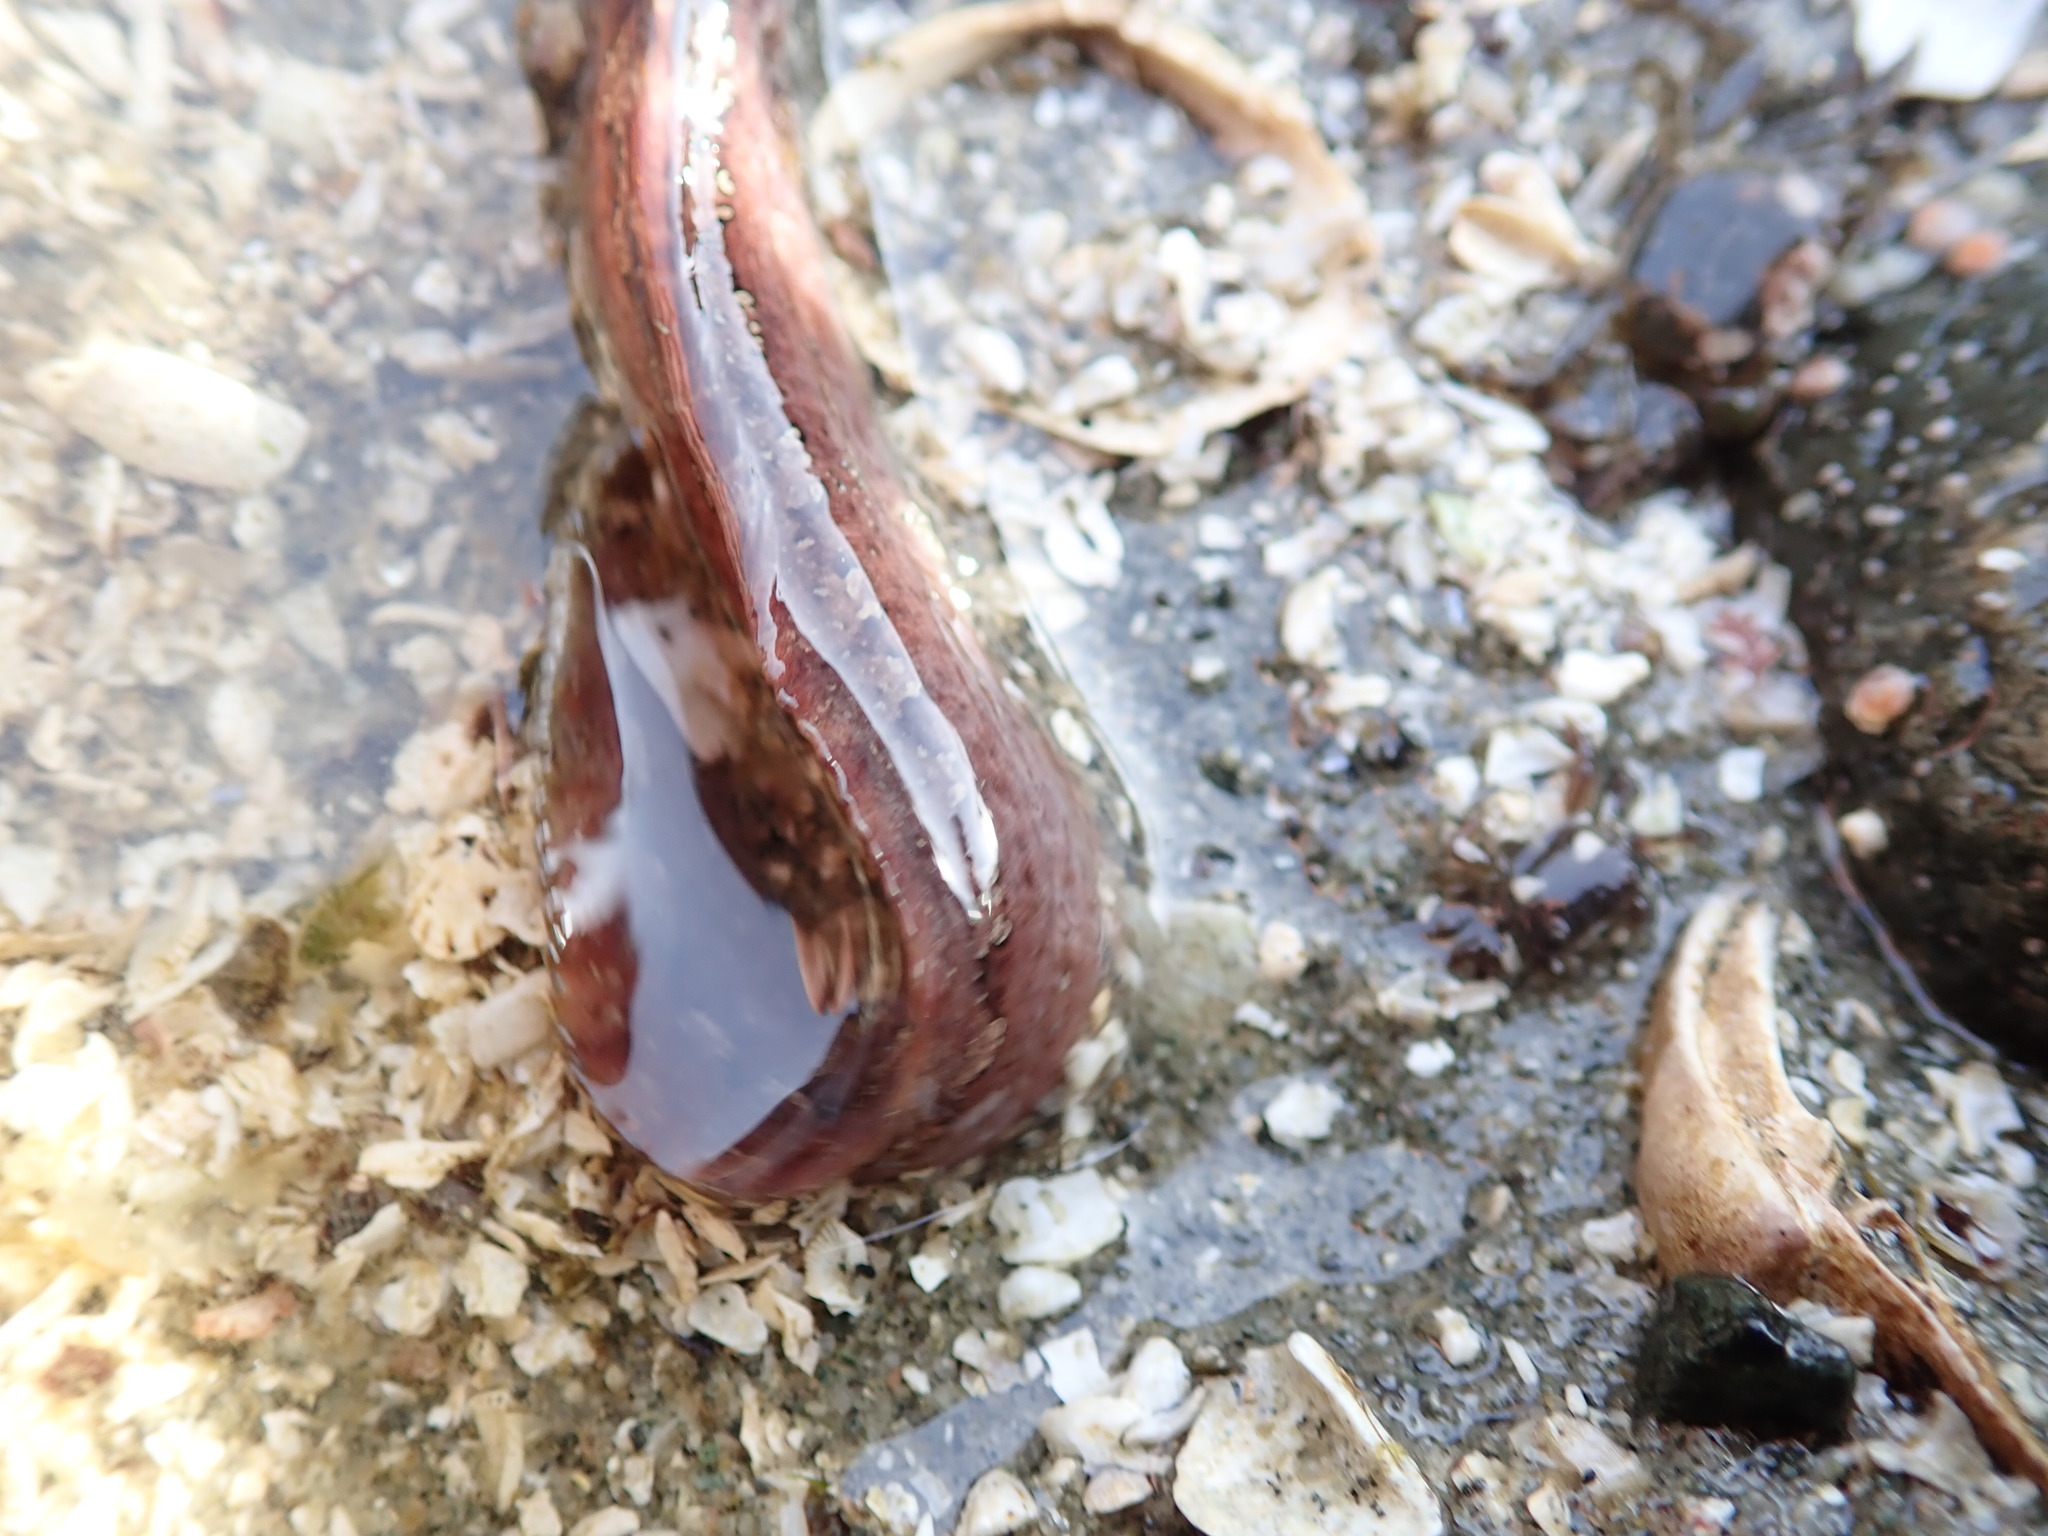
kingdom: Animalia
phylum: Chordata
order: Perciformes
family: Stichaeidae
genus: Anoplarchus
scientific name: Anoplarchus purpurescens
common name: High cockscomb
